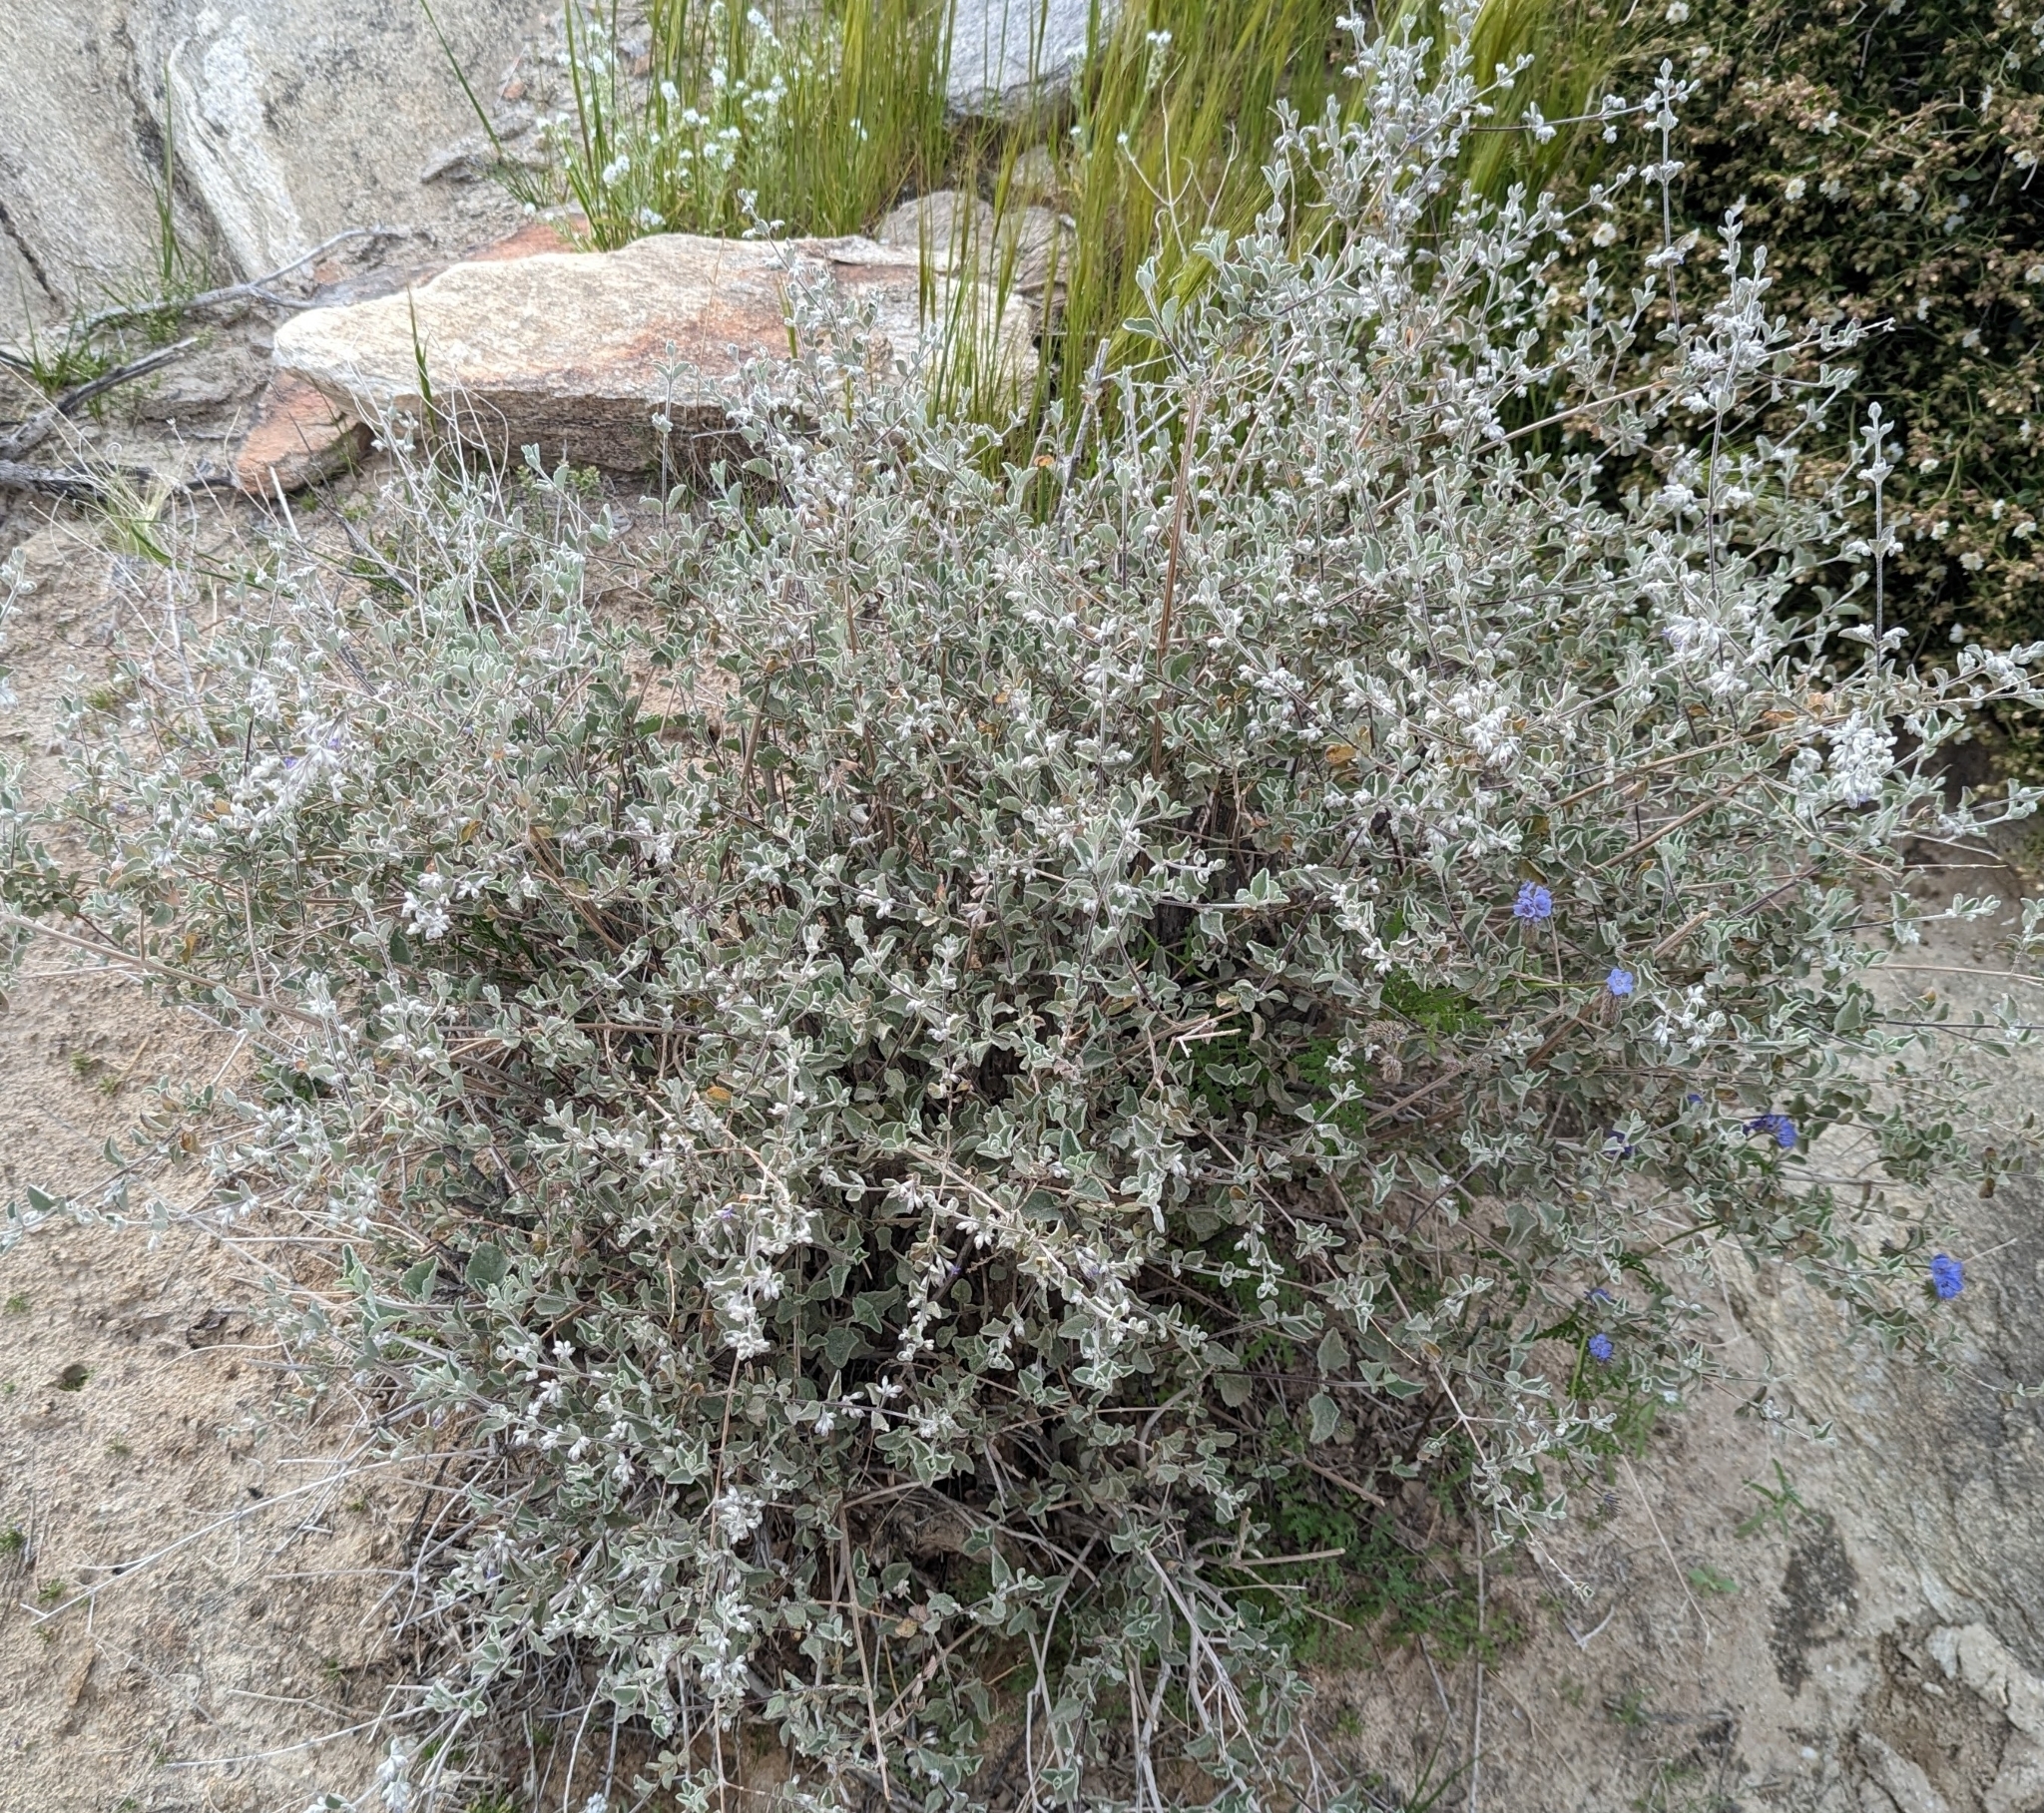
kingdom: Plantae
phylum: Tracheophyta
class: Magnoliopsida
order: Lamiales
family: Lamiaceae
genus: Condea
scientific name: Condea emoryi
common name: Chia
